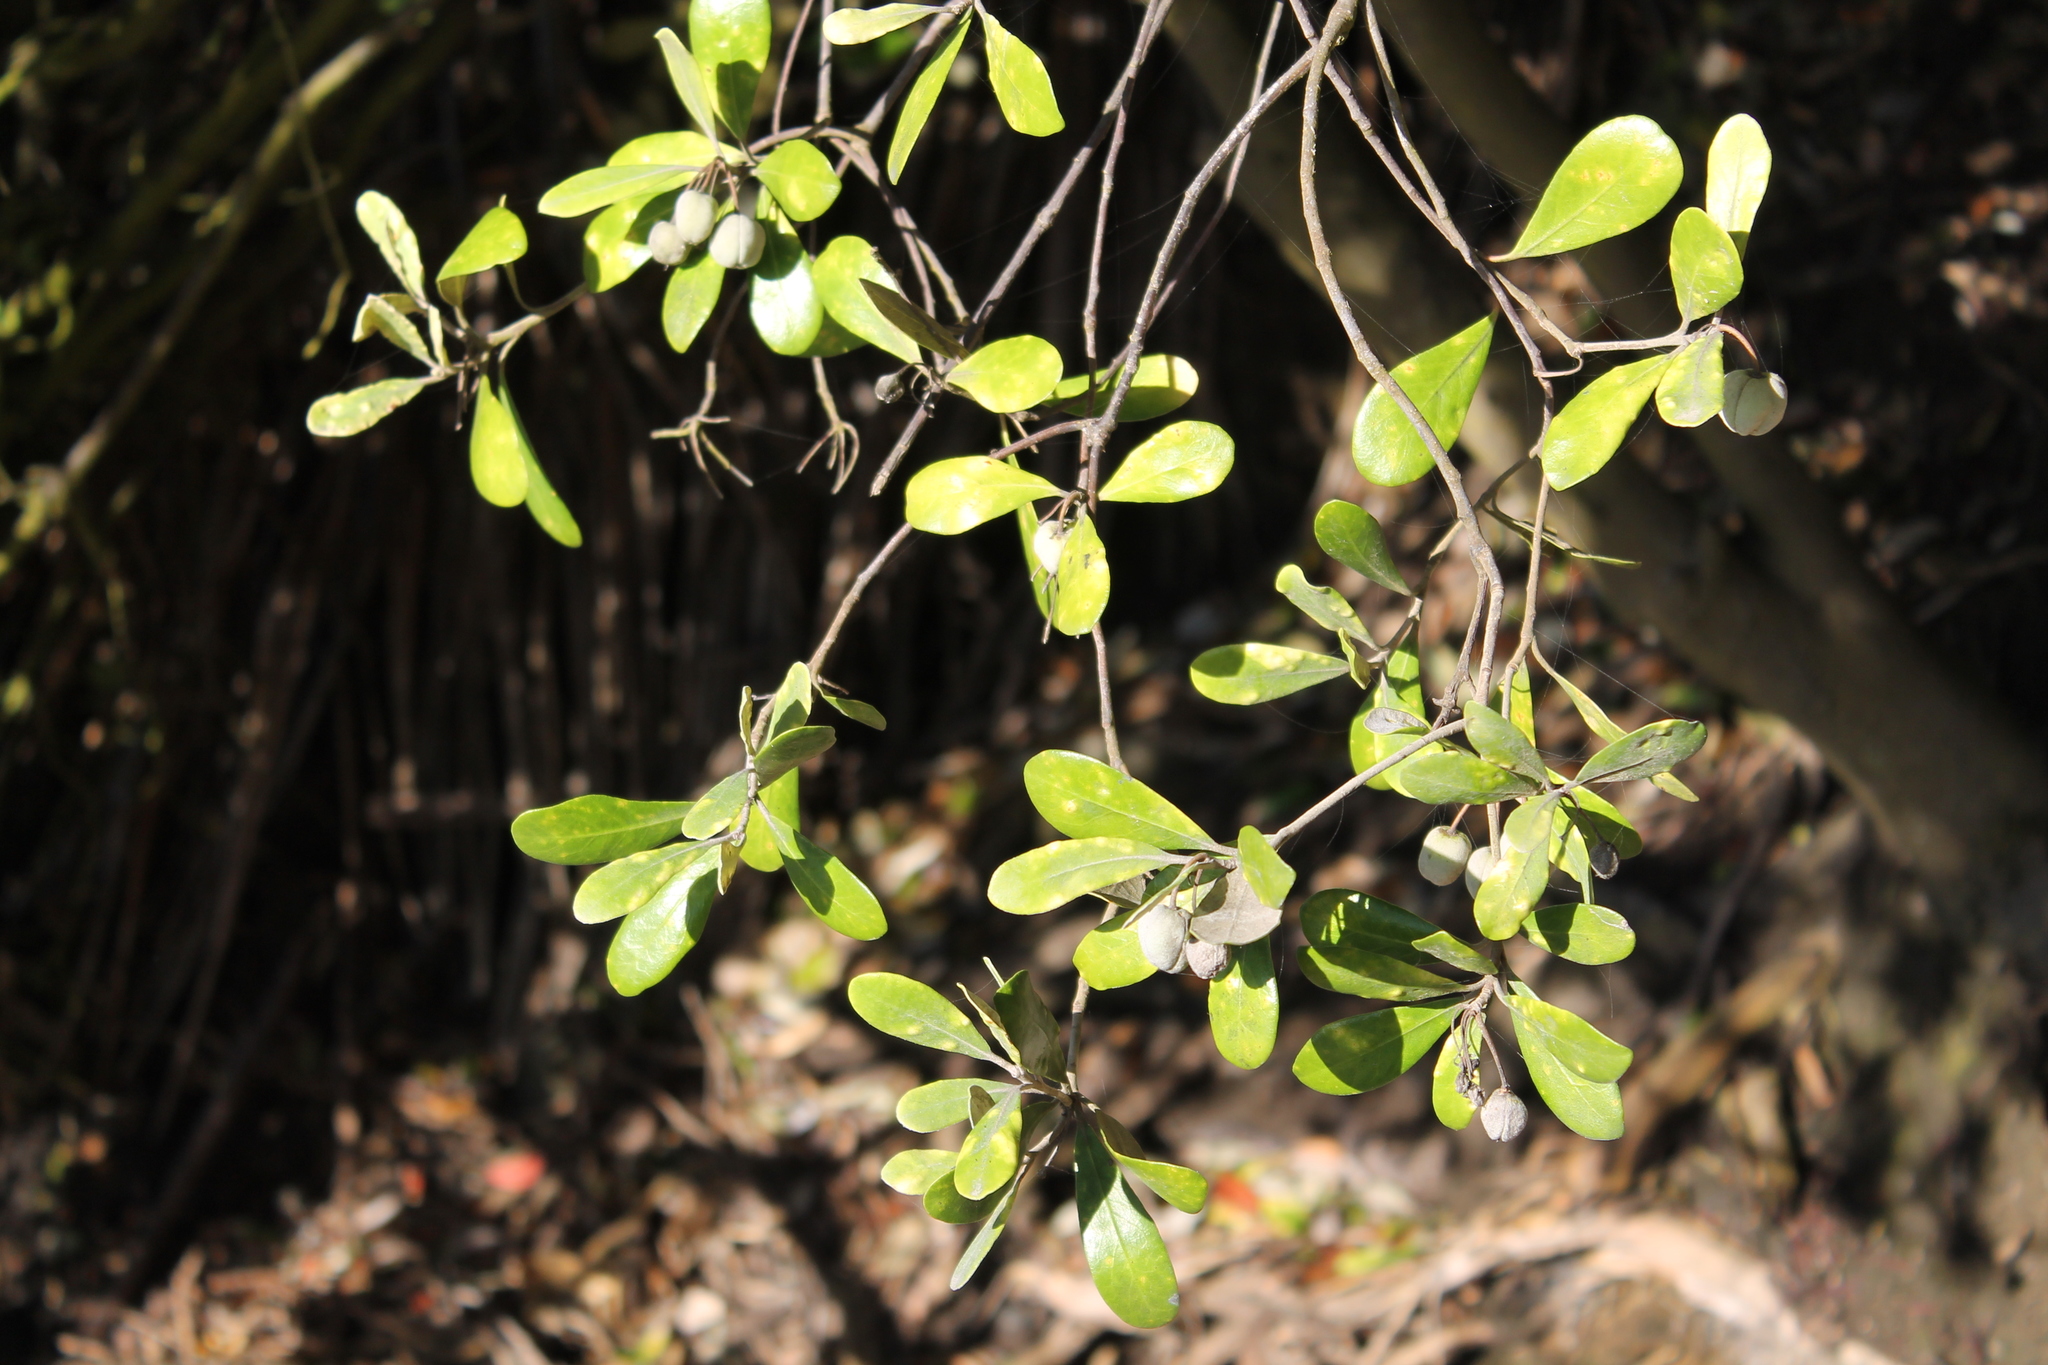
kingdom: Plantae
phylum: Tracheophyta
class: Magnoliopsida
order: Apiales
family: Pittosporaceae
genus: Pittosporum
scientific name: Pittosporum crassifolium
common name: Karo
